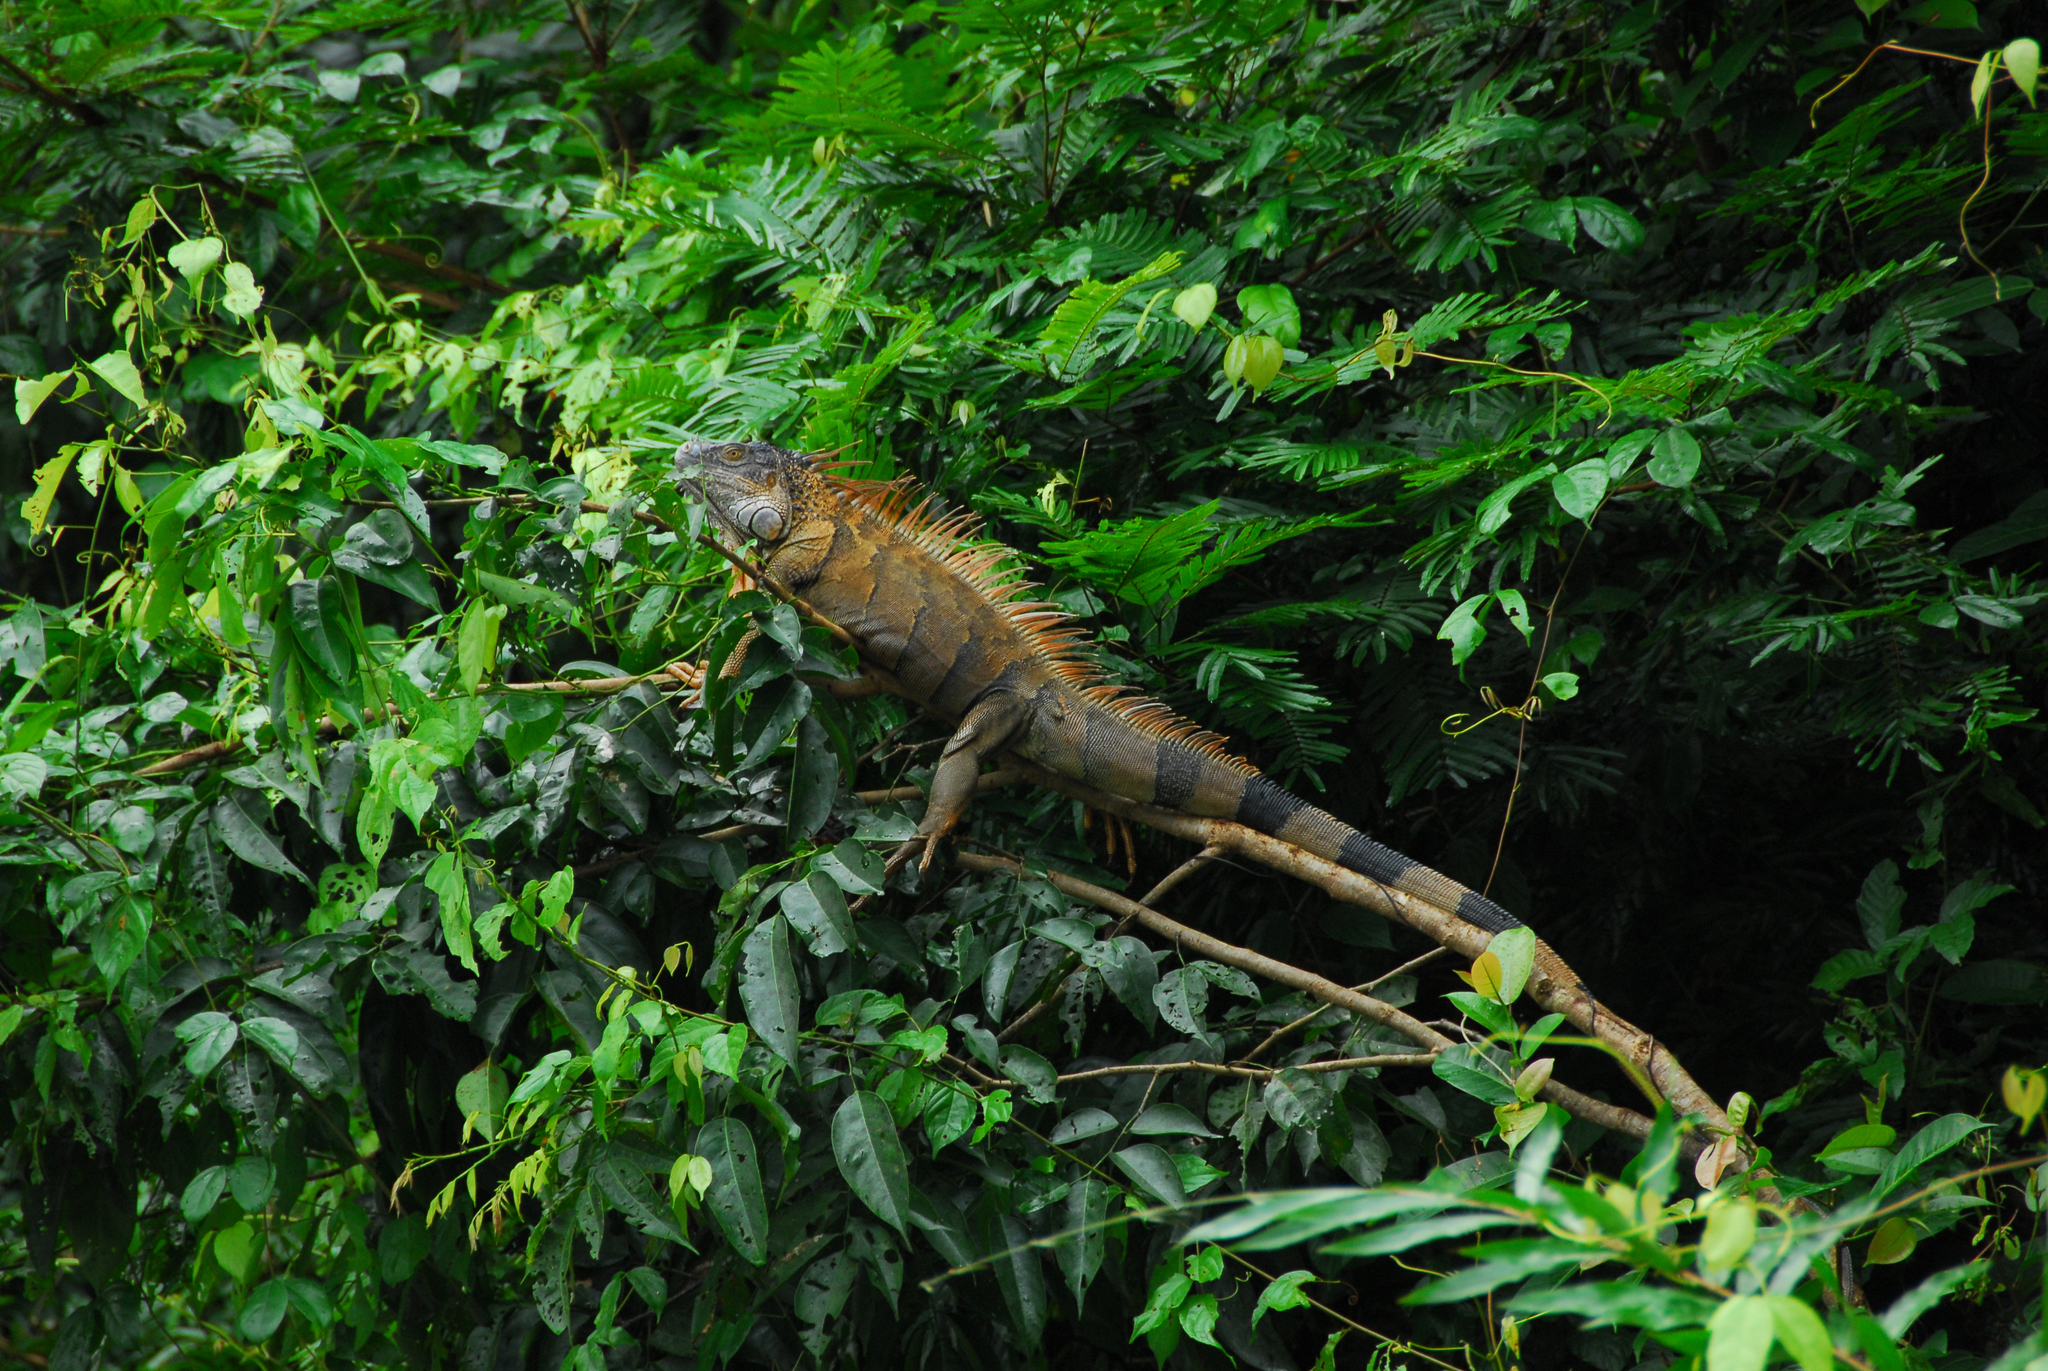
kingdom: Animalia
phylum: Chordata
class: Squamata
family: Iguanidae
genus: Iguana
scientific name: Iguana iguana
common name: Green iguana
